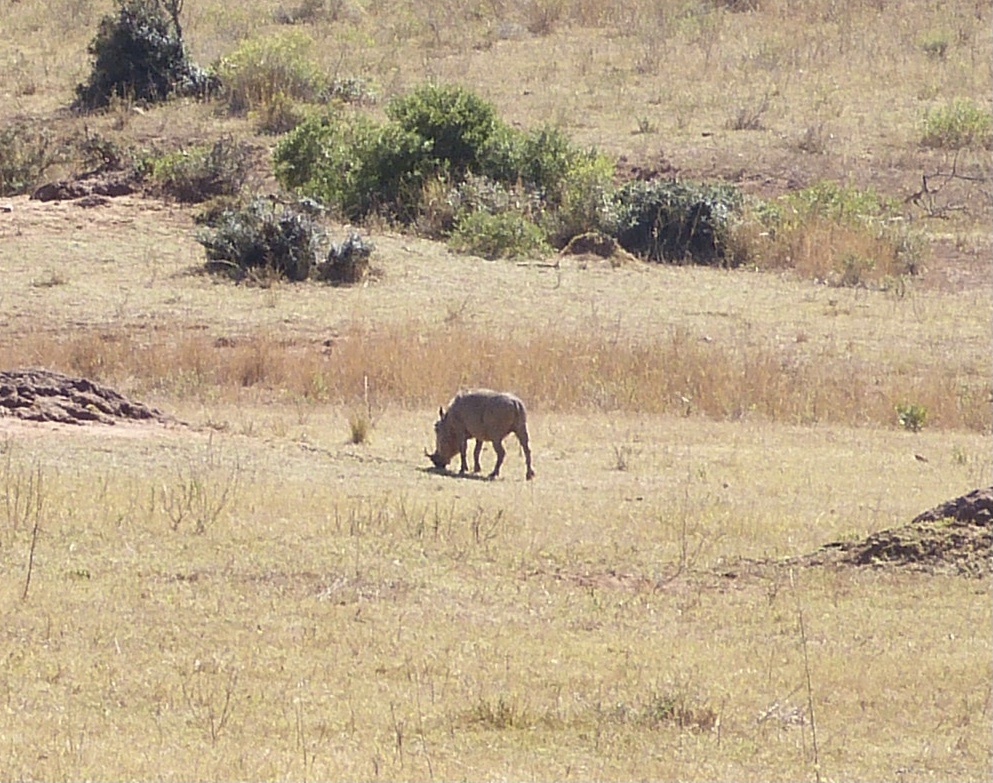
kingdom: Animalia
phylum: Chordata
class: Mammalia
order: Artiodactyla
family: Suidae
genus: Phacochoerus
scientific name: Phacochoerus africanus
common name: Common warthog
